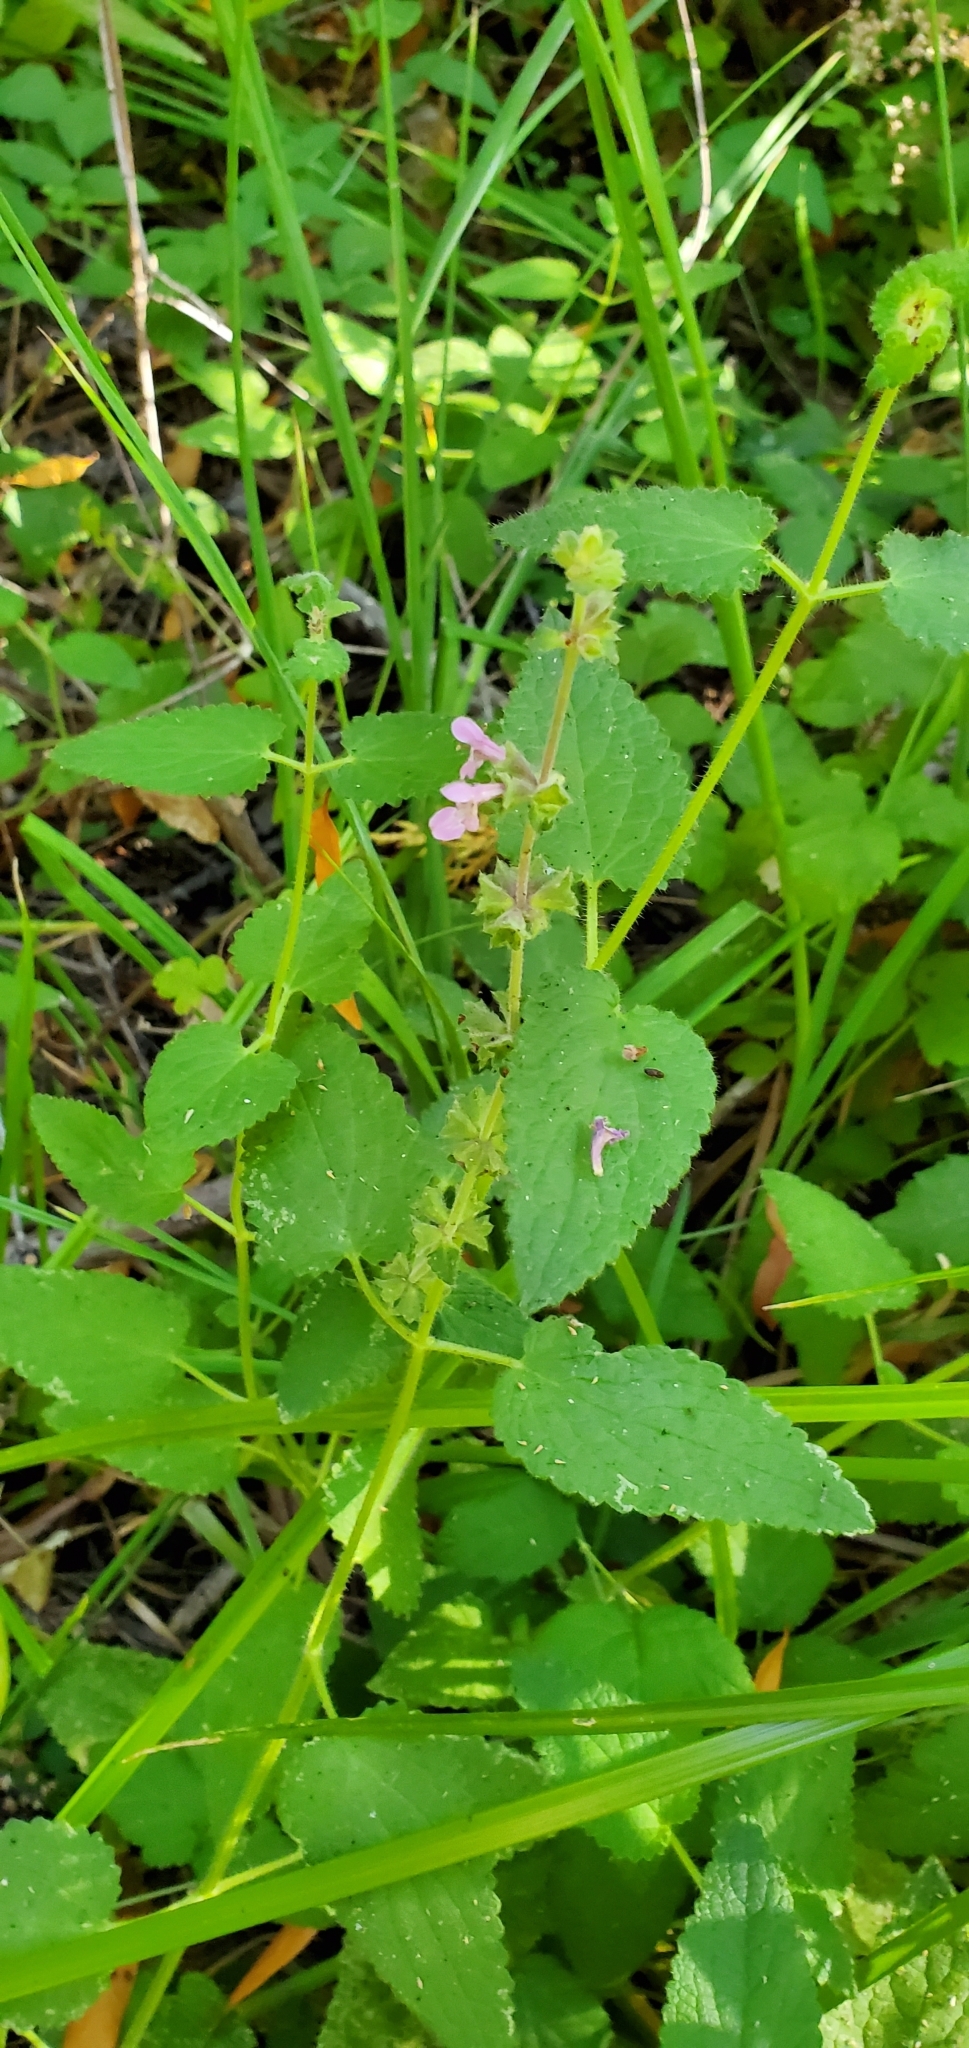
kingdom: Plantae
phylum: Tracheophyta
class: Magnoliopsida
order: Lamiales
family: Lamiaceae
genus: Stachys
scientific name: Stachys bullata
